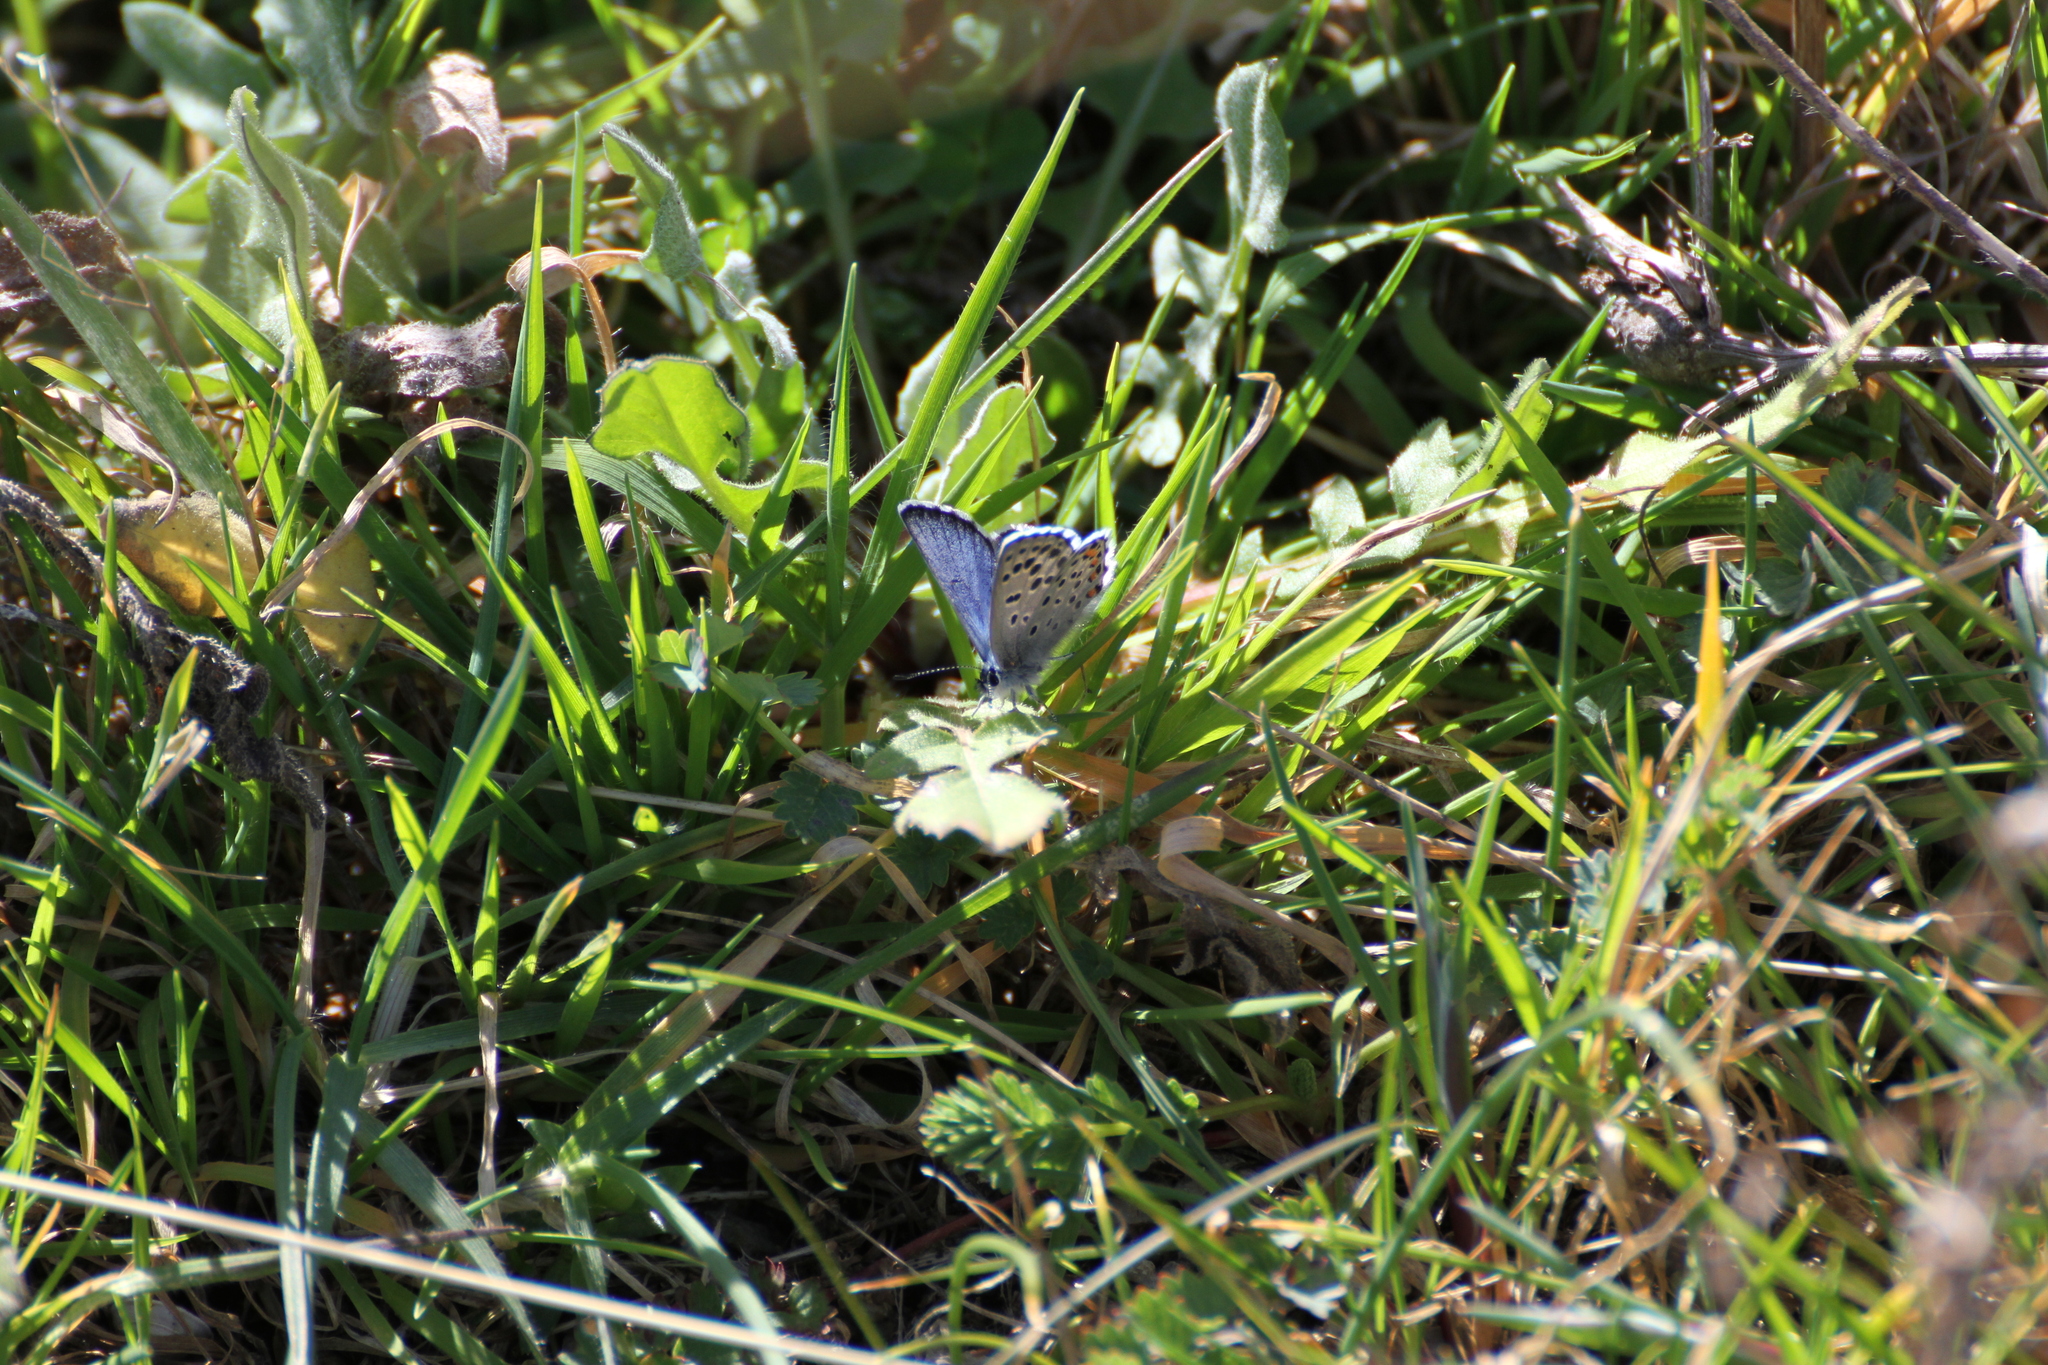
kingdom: Animalia
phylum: Arthropoda
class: Insecta
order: Lepidoptera
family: Lycaenidae
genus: Pseudophilotes
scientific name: Pseudophilotes baton
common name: Baton blue
